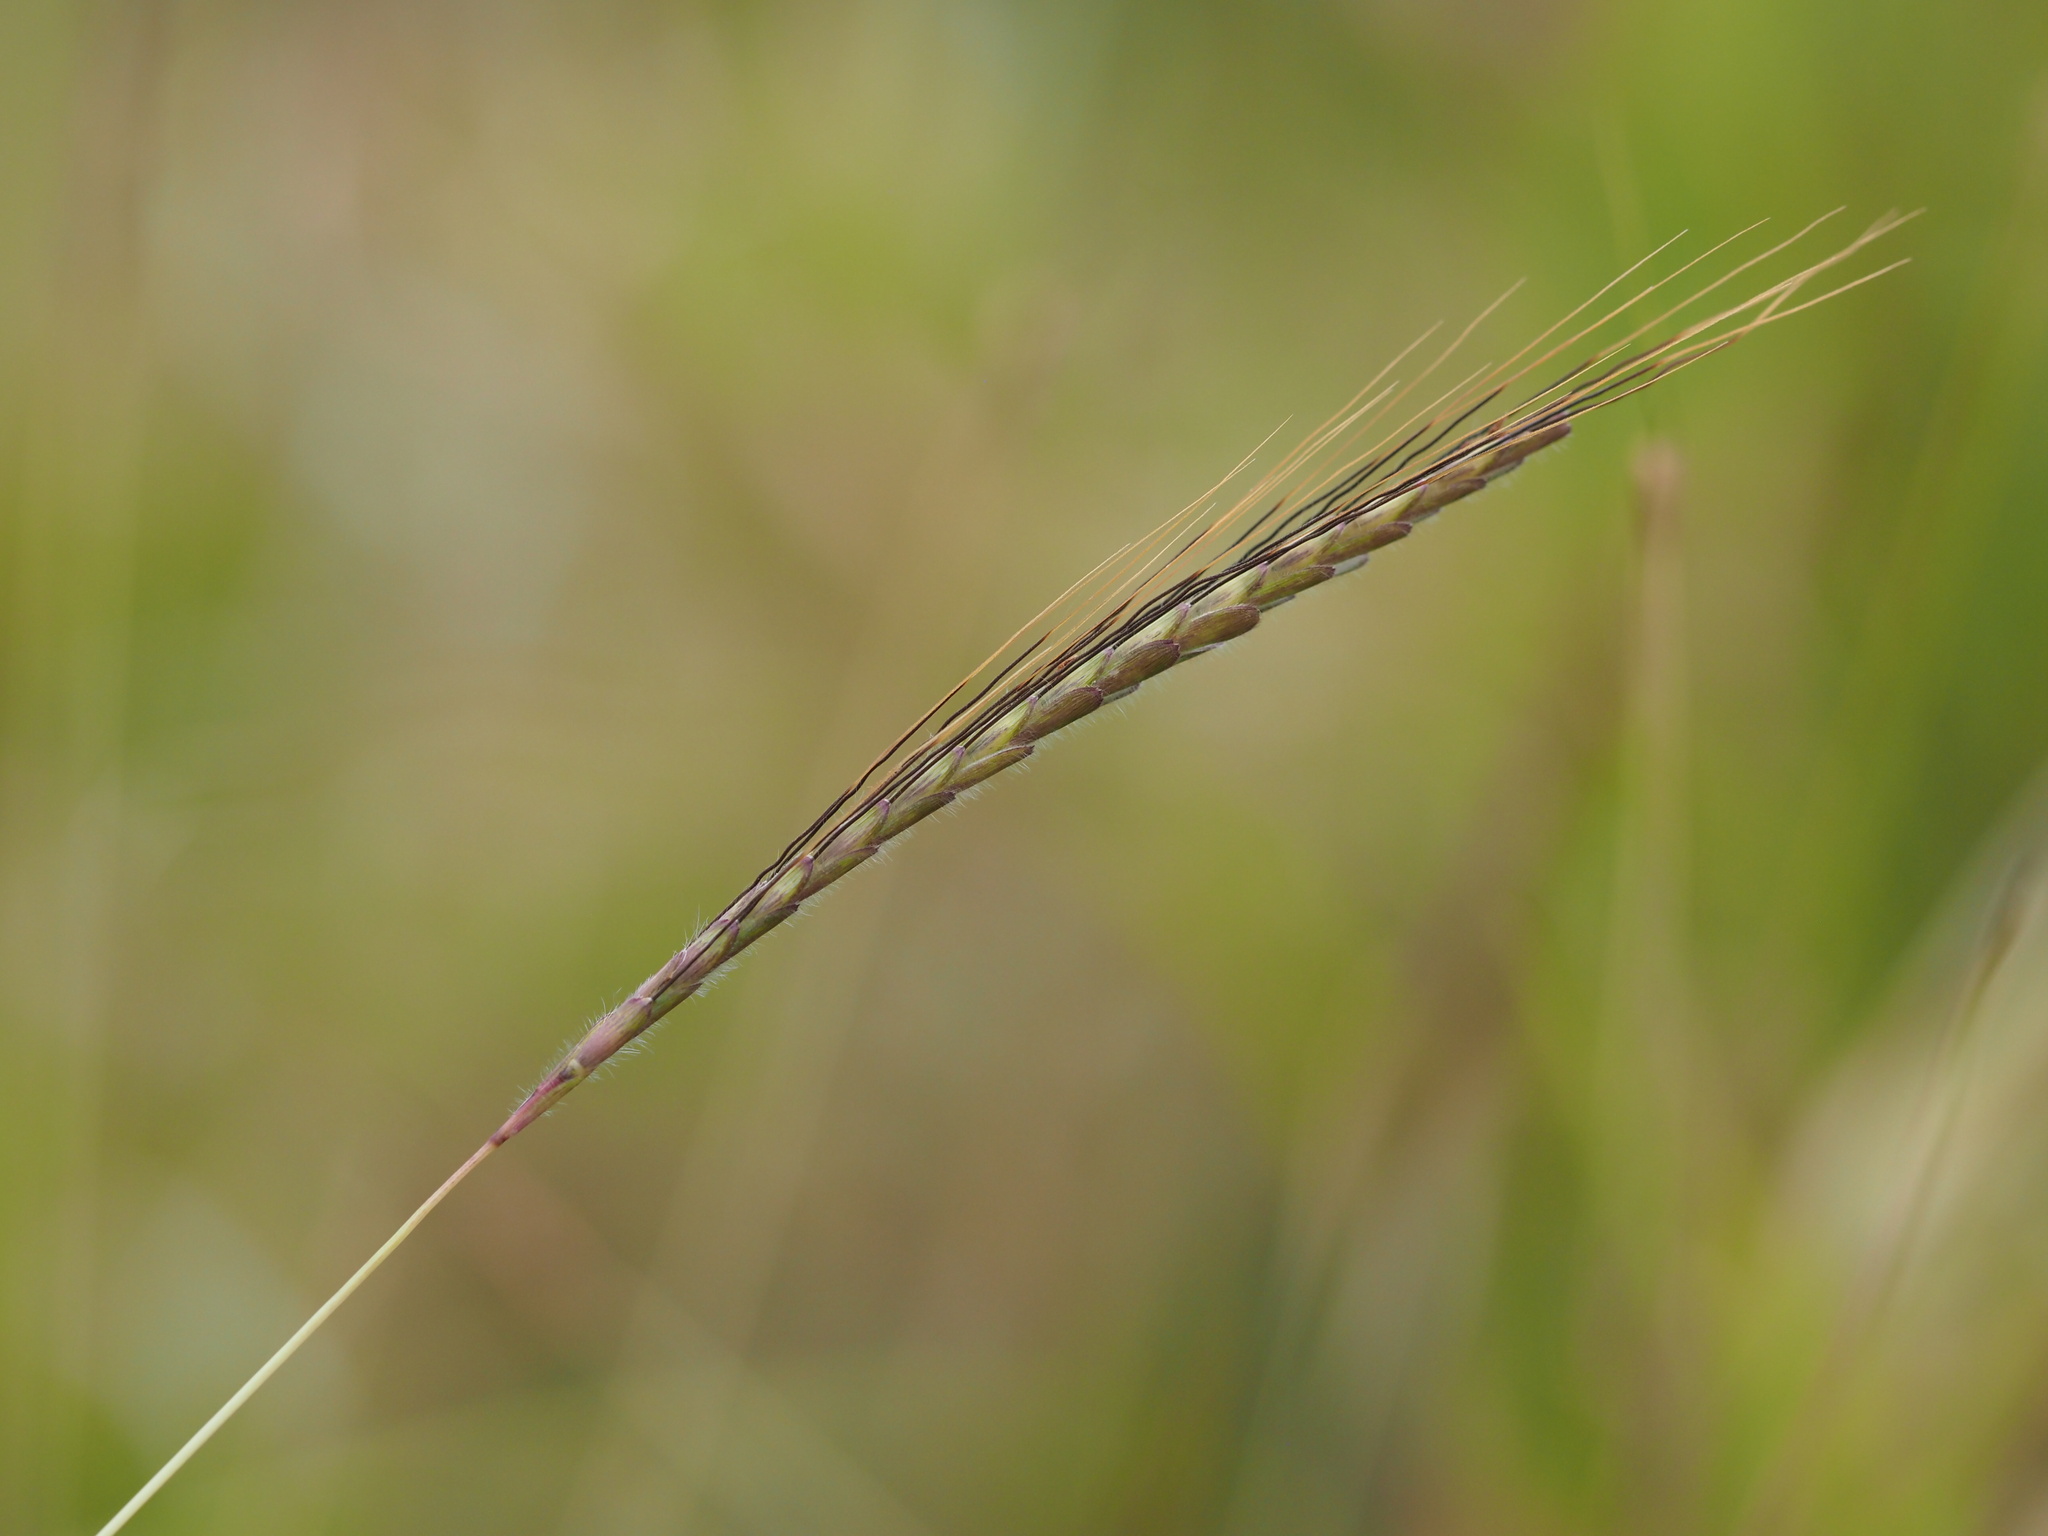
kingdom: Plantae
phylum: Tracheophyta
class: Liliopsida
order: Poales
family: Poaceae
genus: Dichanthium
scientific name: Dichanthium caricosum
